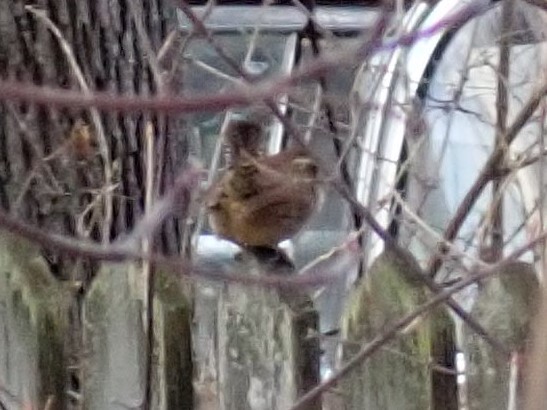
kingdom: Animalia
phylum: Chordata
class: Aves
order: Passeriformes
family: Troglodytidae
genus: Thryothorus
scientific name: Thryothorus ludovicianus
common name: Carolina wren
